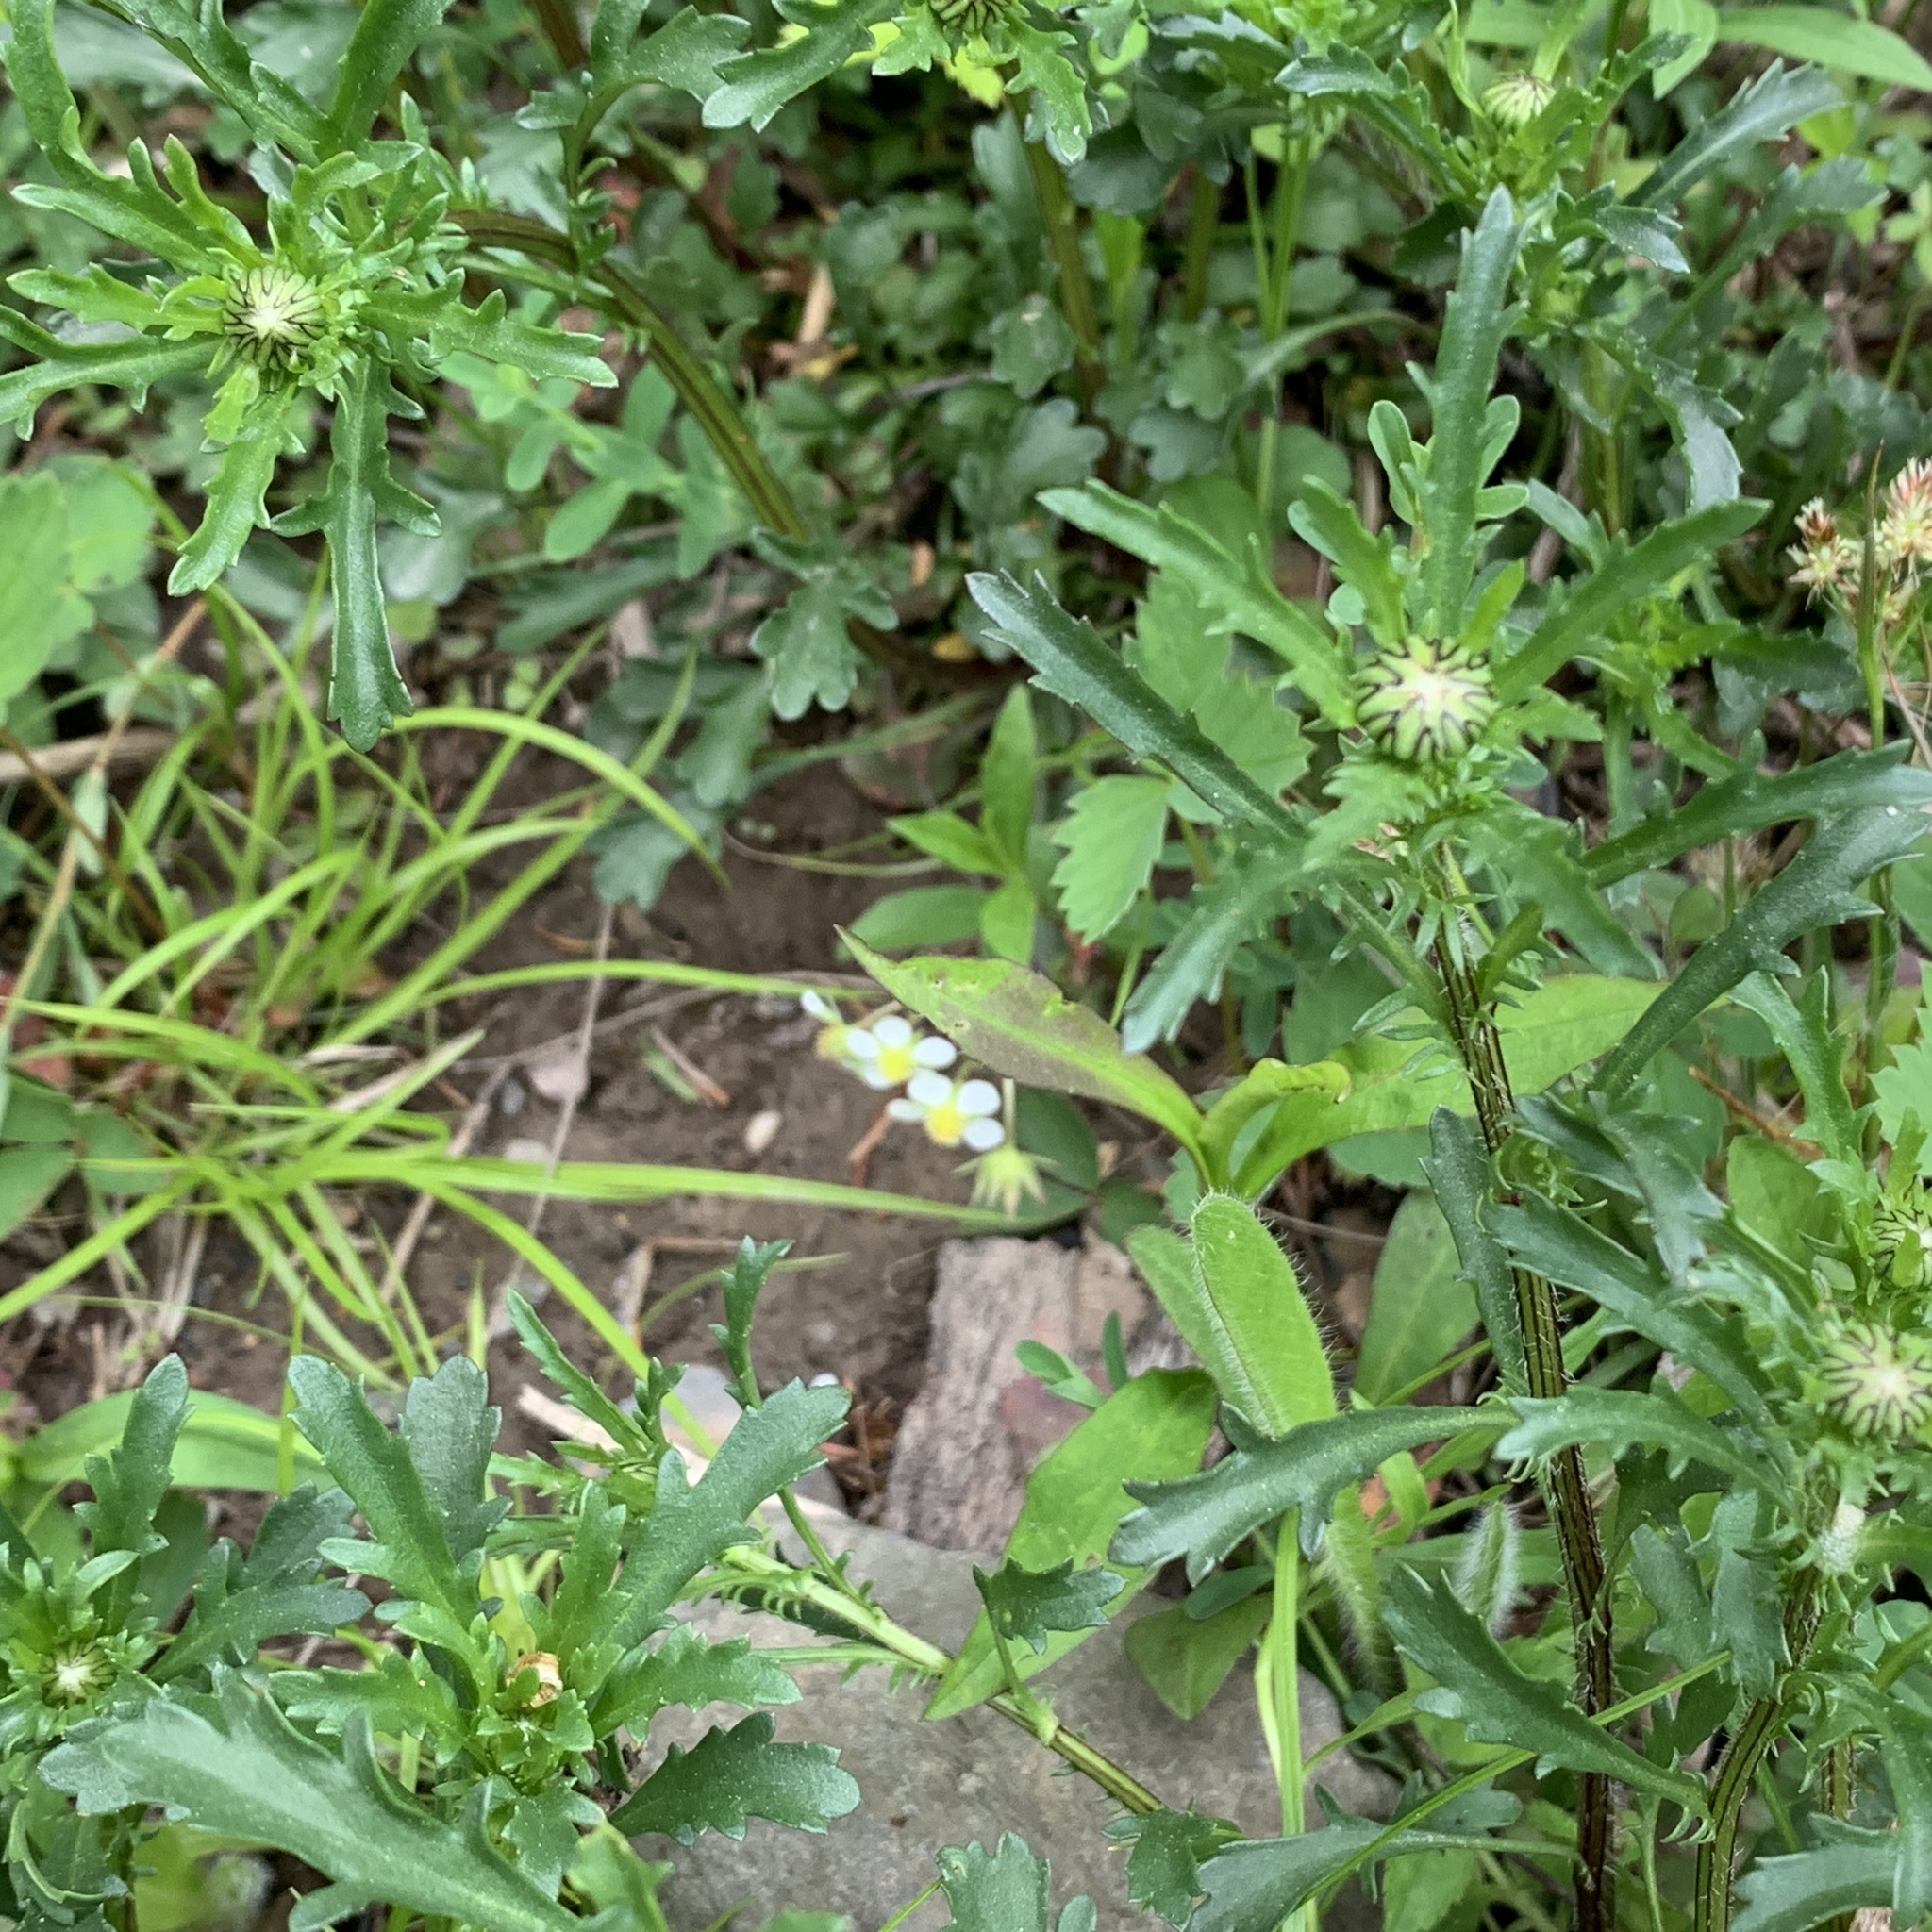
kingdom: Plantae
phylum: Tracheophyta
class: Magnoliopsida
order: Asterales
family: Asteraceae
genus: Leucanthemum
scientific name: Leucanthemum vulgare
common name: Oxeye daisy
